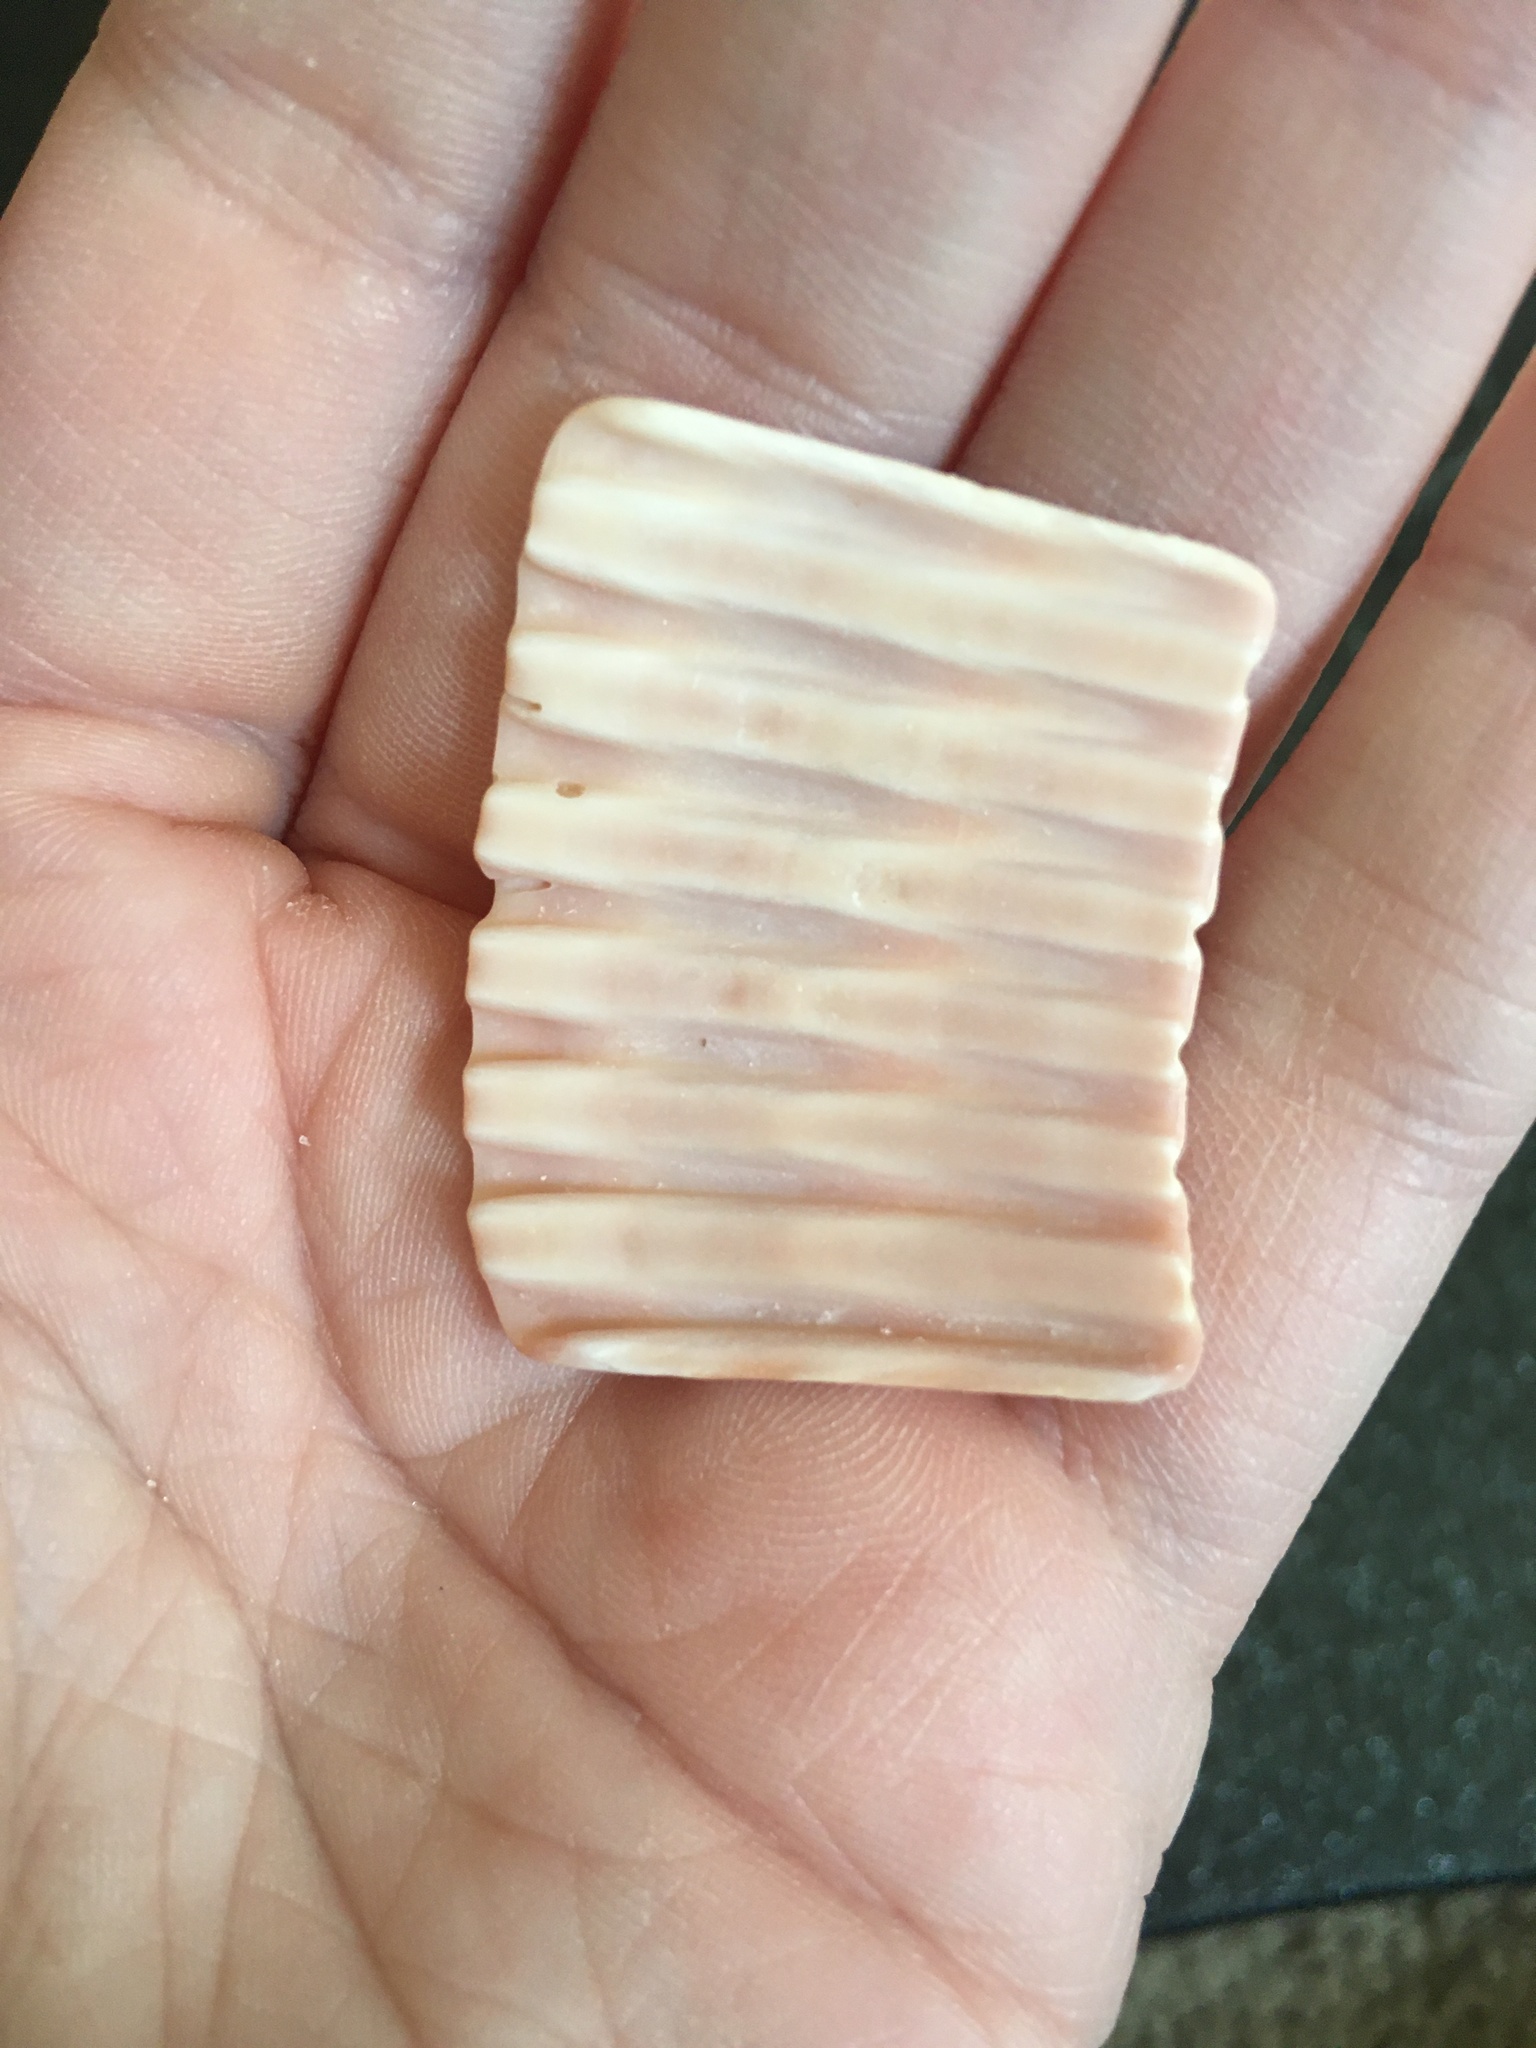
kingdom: Animalia
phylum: Mollusca
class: Bivalvia
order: Cardiida
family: Cardiidae
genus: Dinocardium
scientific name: Dinocardium robustum
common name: Atlantic giant cockle
